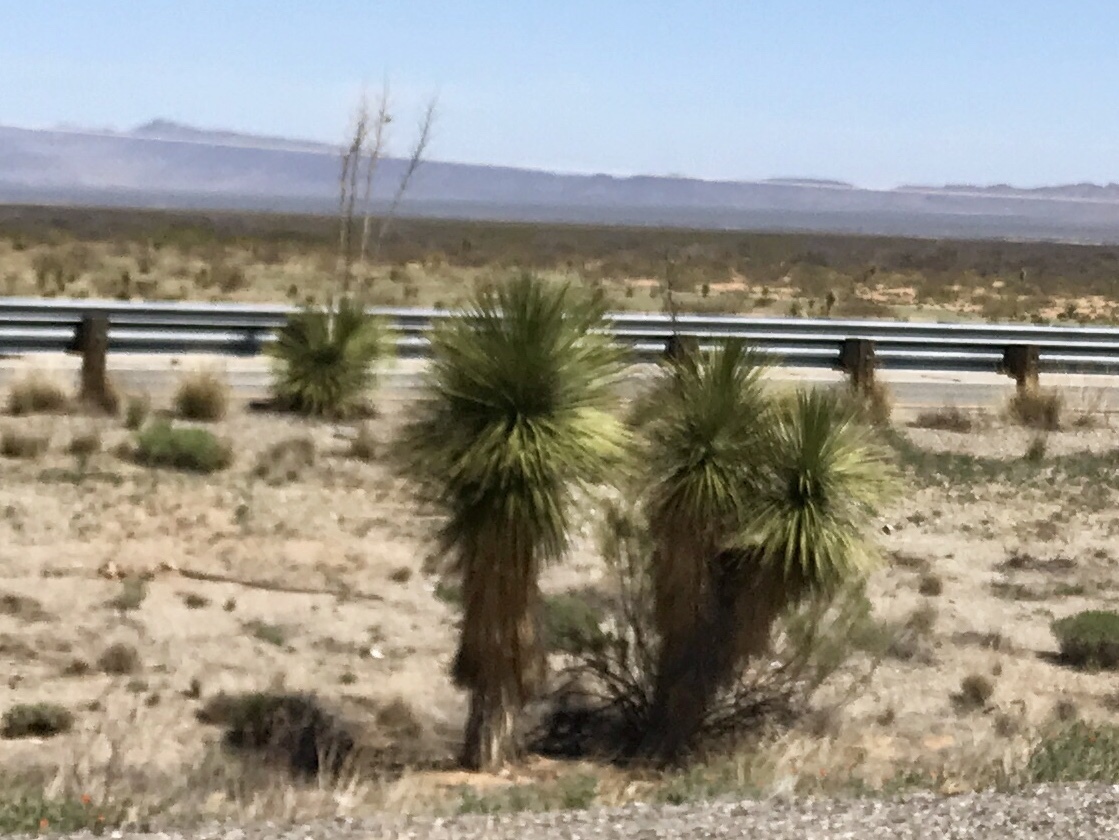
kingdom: Plantae
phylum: Tracheophyta
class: Liliopsida
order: Asparagales
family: Asparagaceae
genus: Yucca
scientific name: Yucca elata
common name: Palmella
